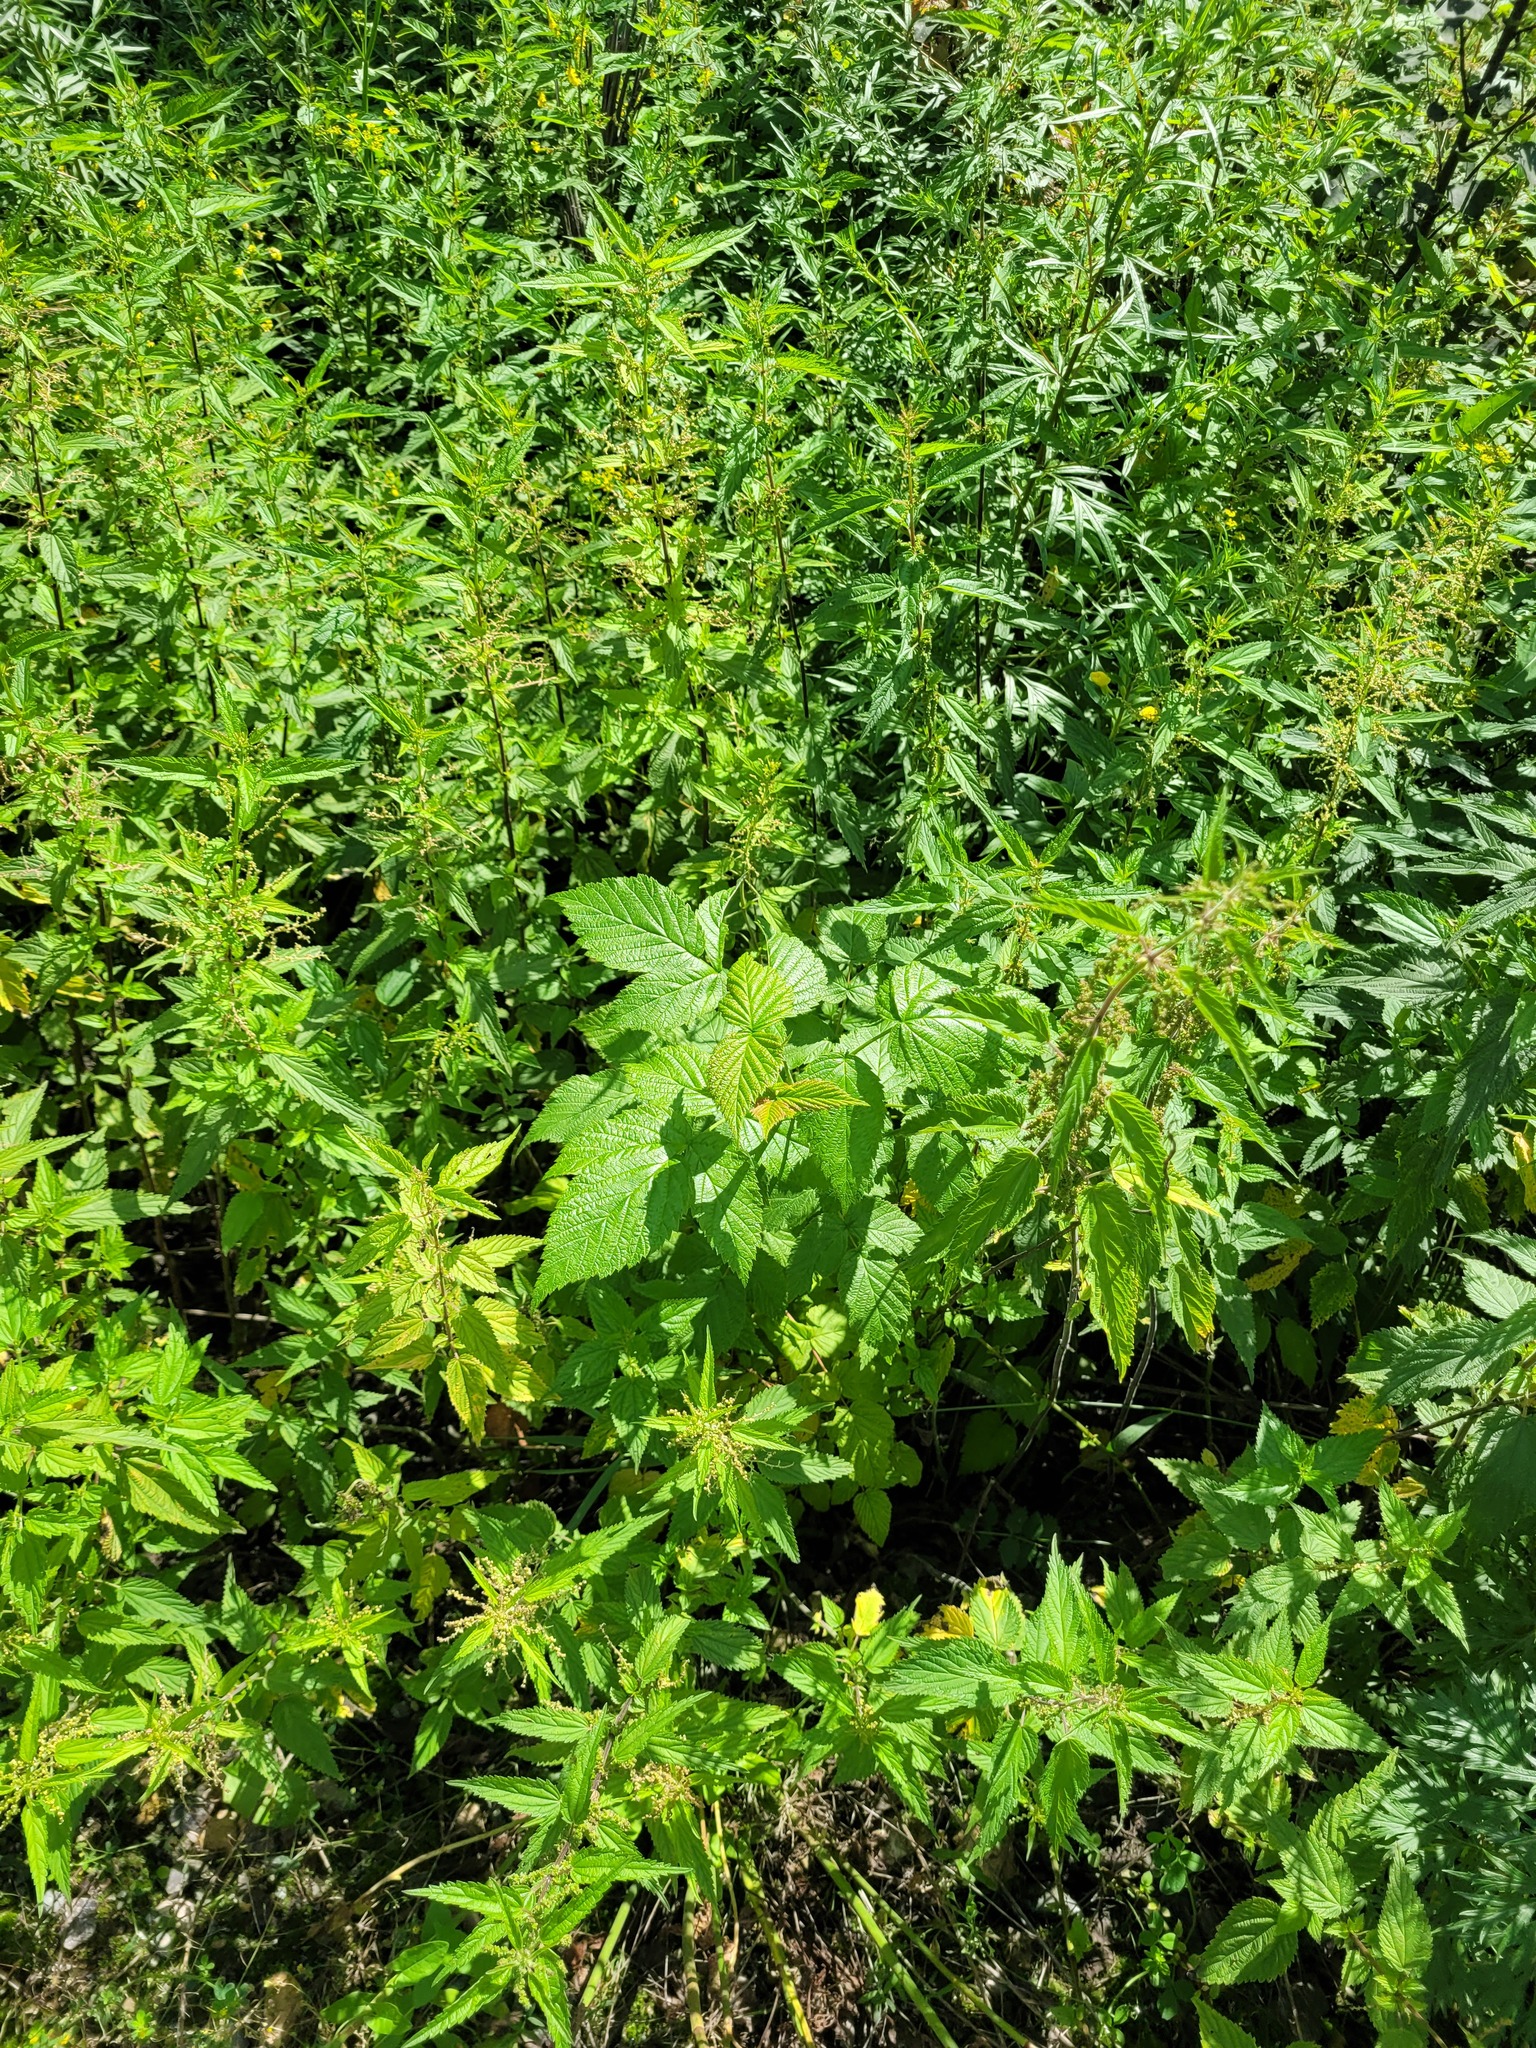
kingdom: Plantae
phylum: Tracheophyta
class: Magnoliopsida
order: Rosales
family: Rosaceae
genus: Rubus
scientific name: Rubus idaeus
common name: Raspberry
